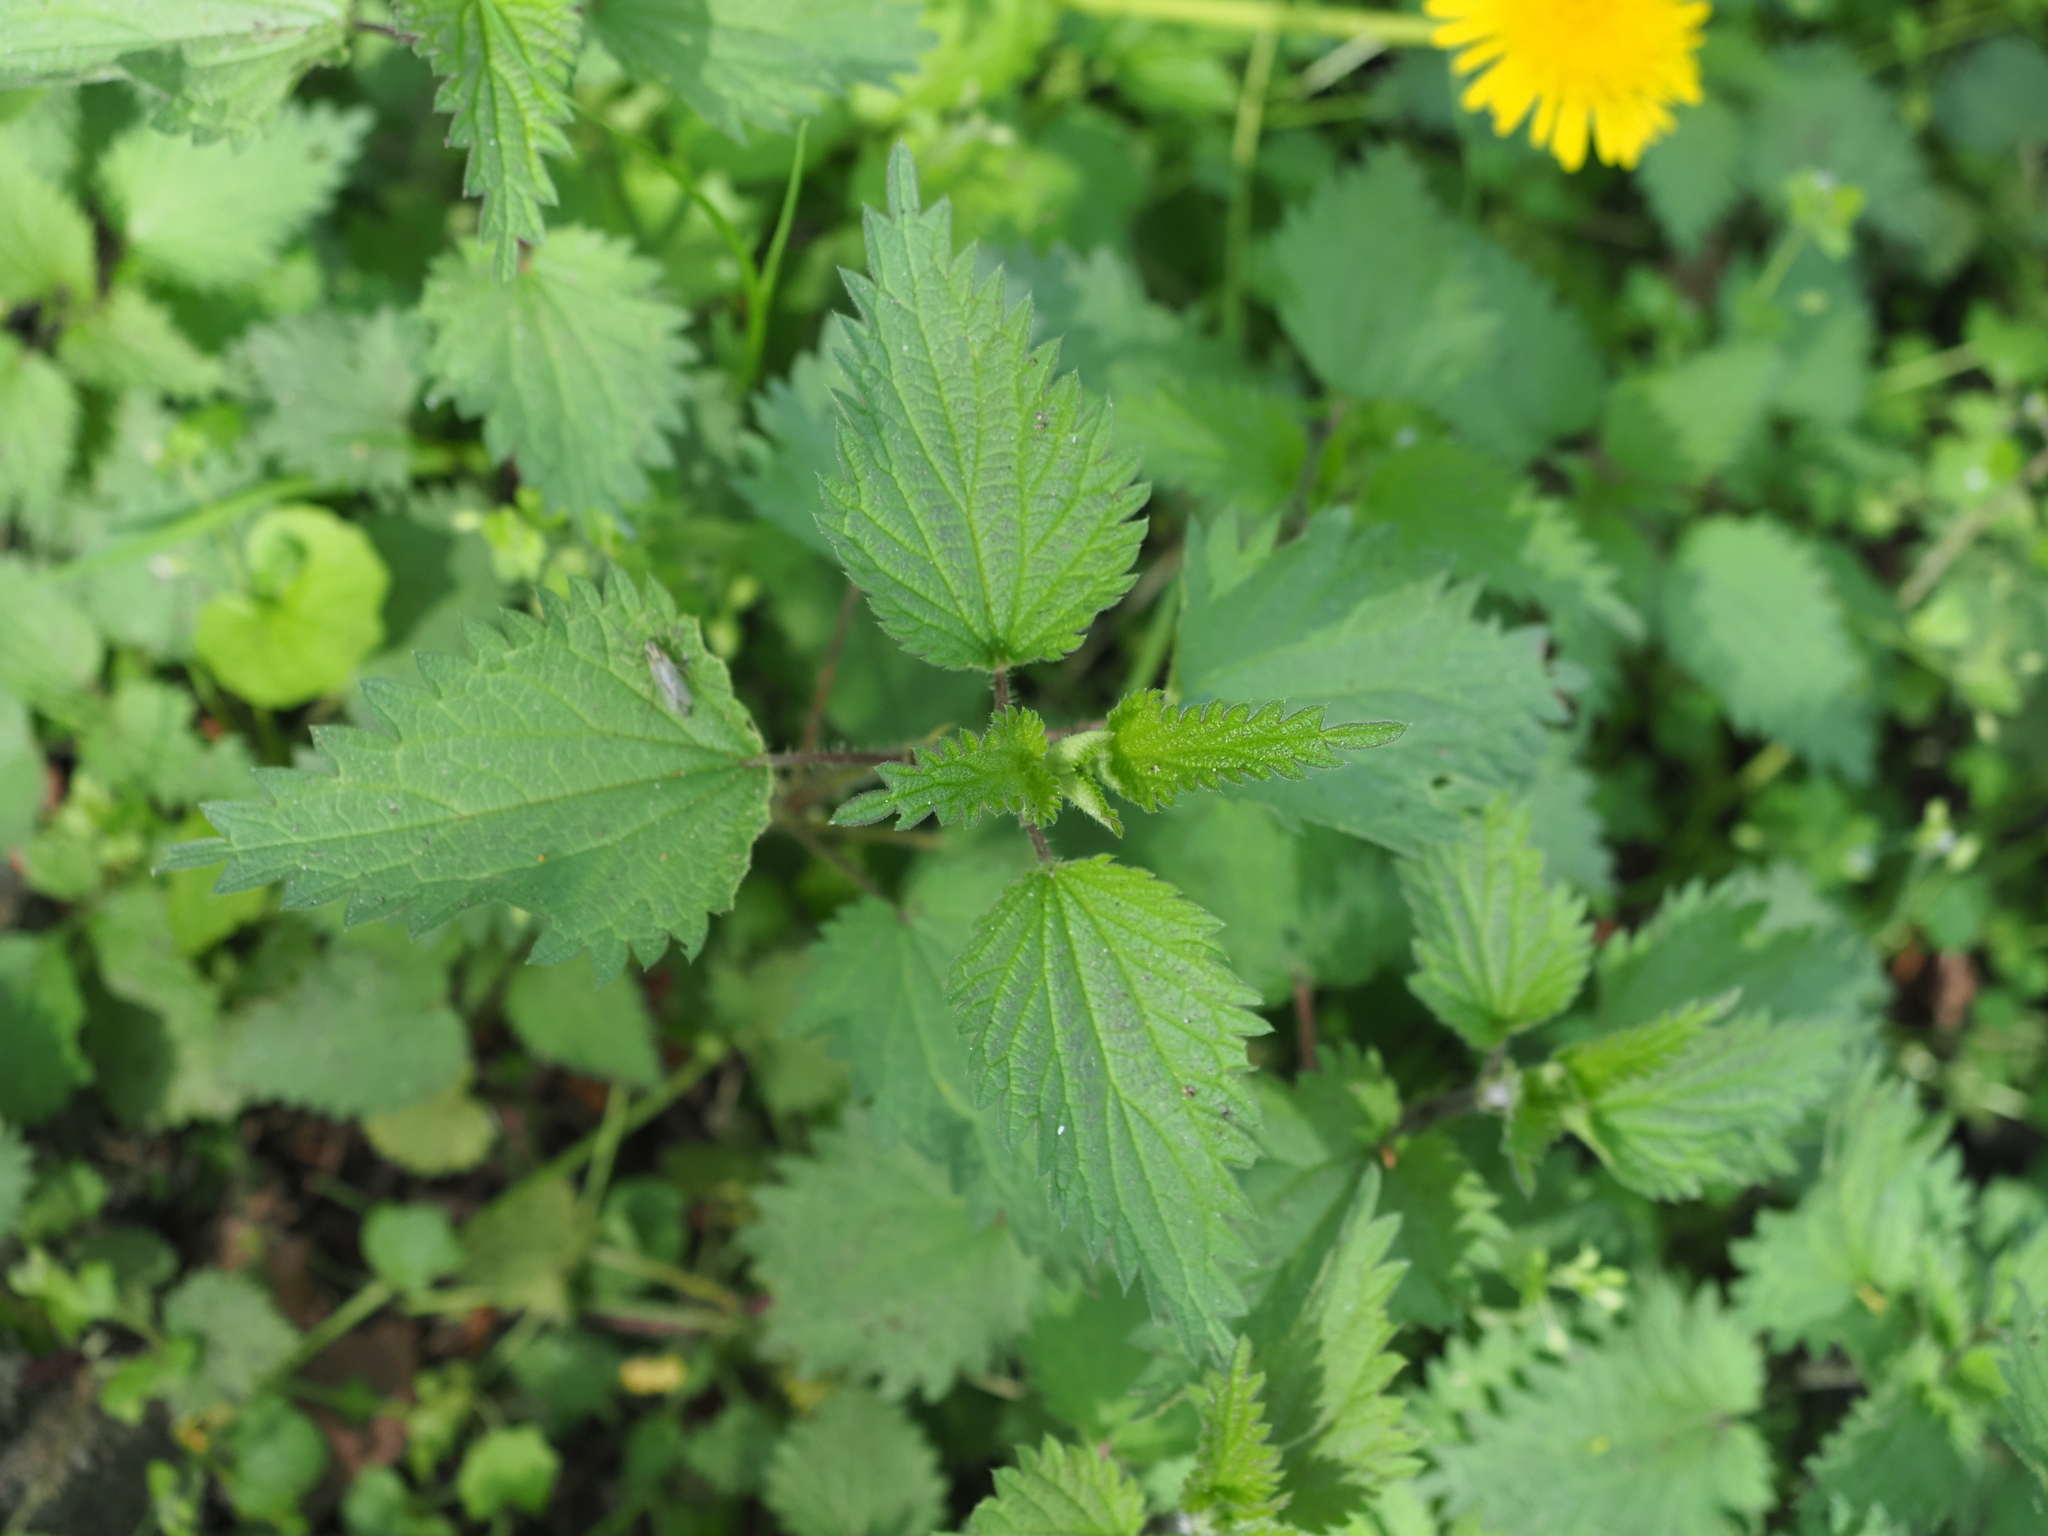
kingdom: Plantae
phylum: Tracheophyta
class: Magnoliopsida
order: Rosales
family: Urticaceae
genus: Urtica
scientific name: Urtica dioica
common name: Common nettle
